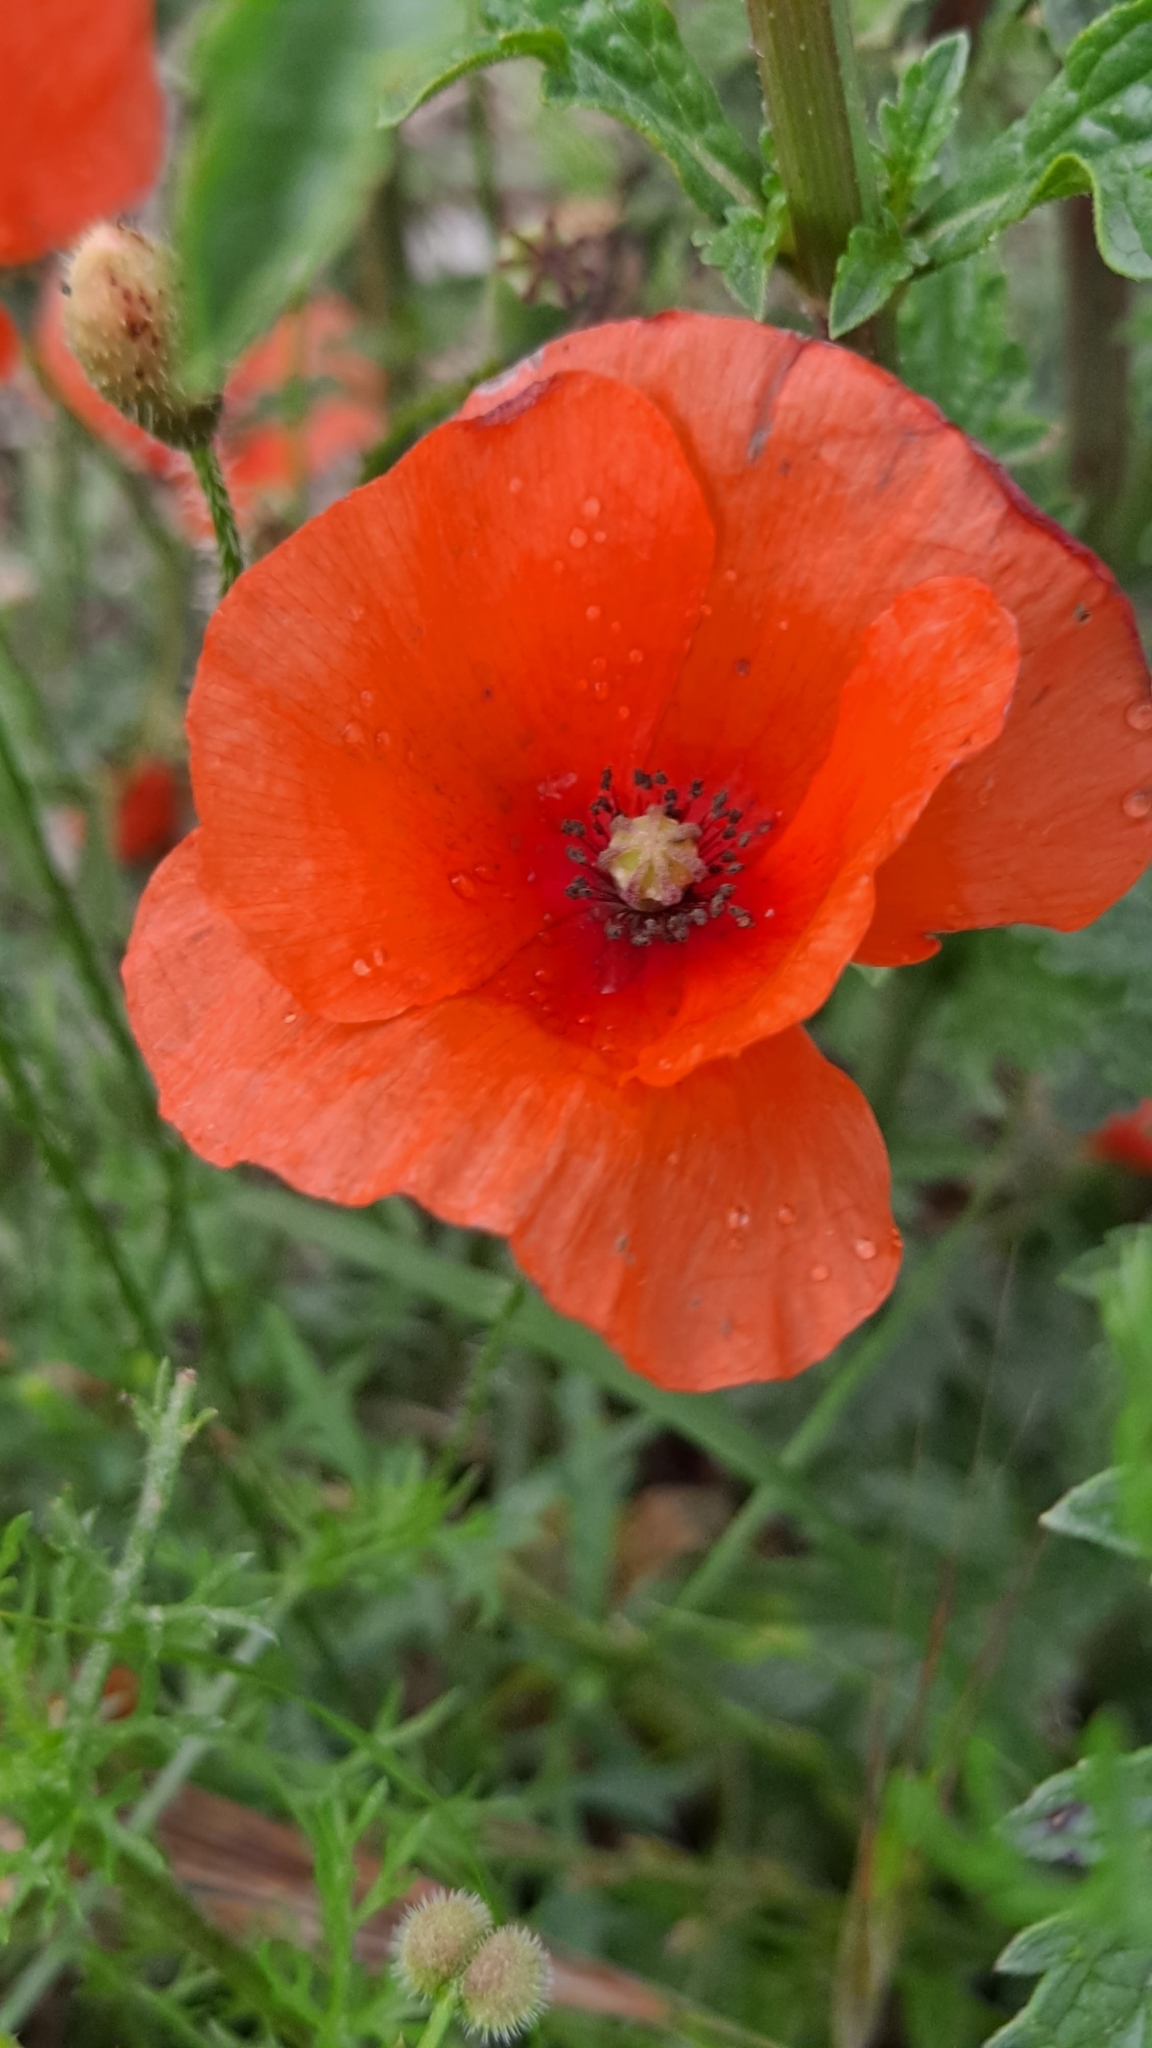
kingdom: Plantae
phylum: Tracheophyta
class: Magnoliopsida
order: Ranunculales
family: Papaveraceae
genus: Papaver
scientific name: Papaver rhoeas
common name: Corn poppy
